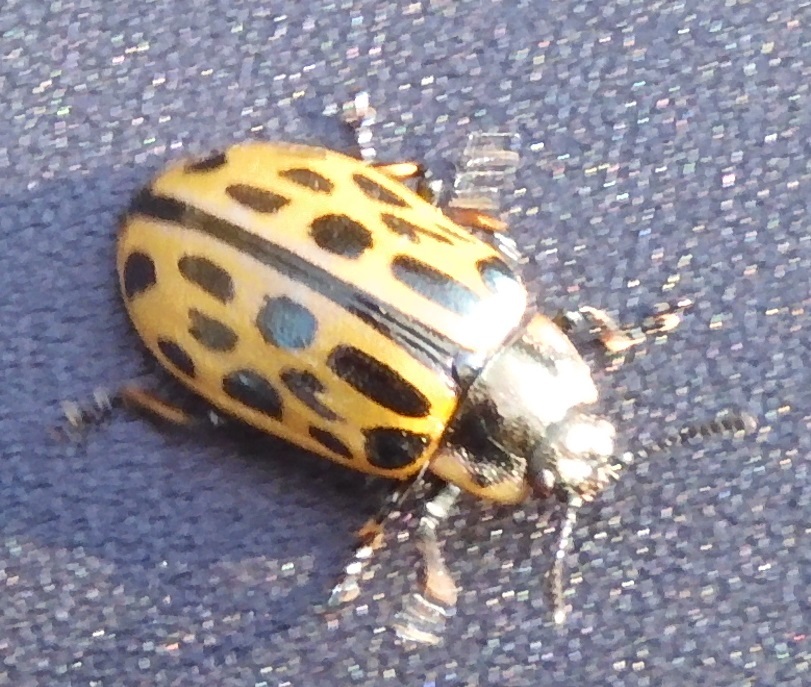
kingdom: Animalia
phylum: Arthropoda
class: Insecta
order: Coleoptera
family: Chrysomelidae
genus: Chrysomela
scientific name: Chrysomela vigintipunctata
